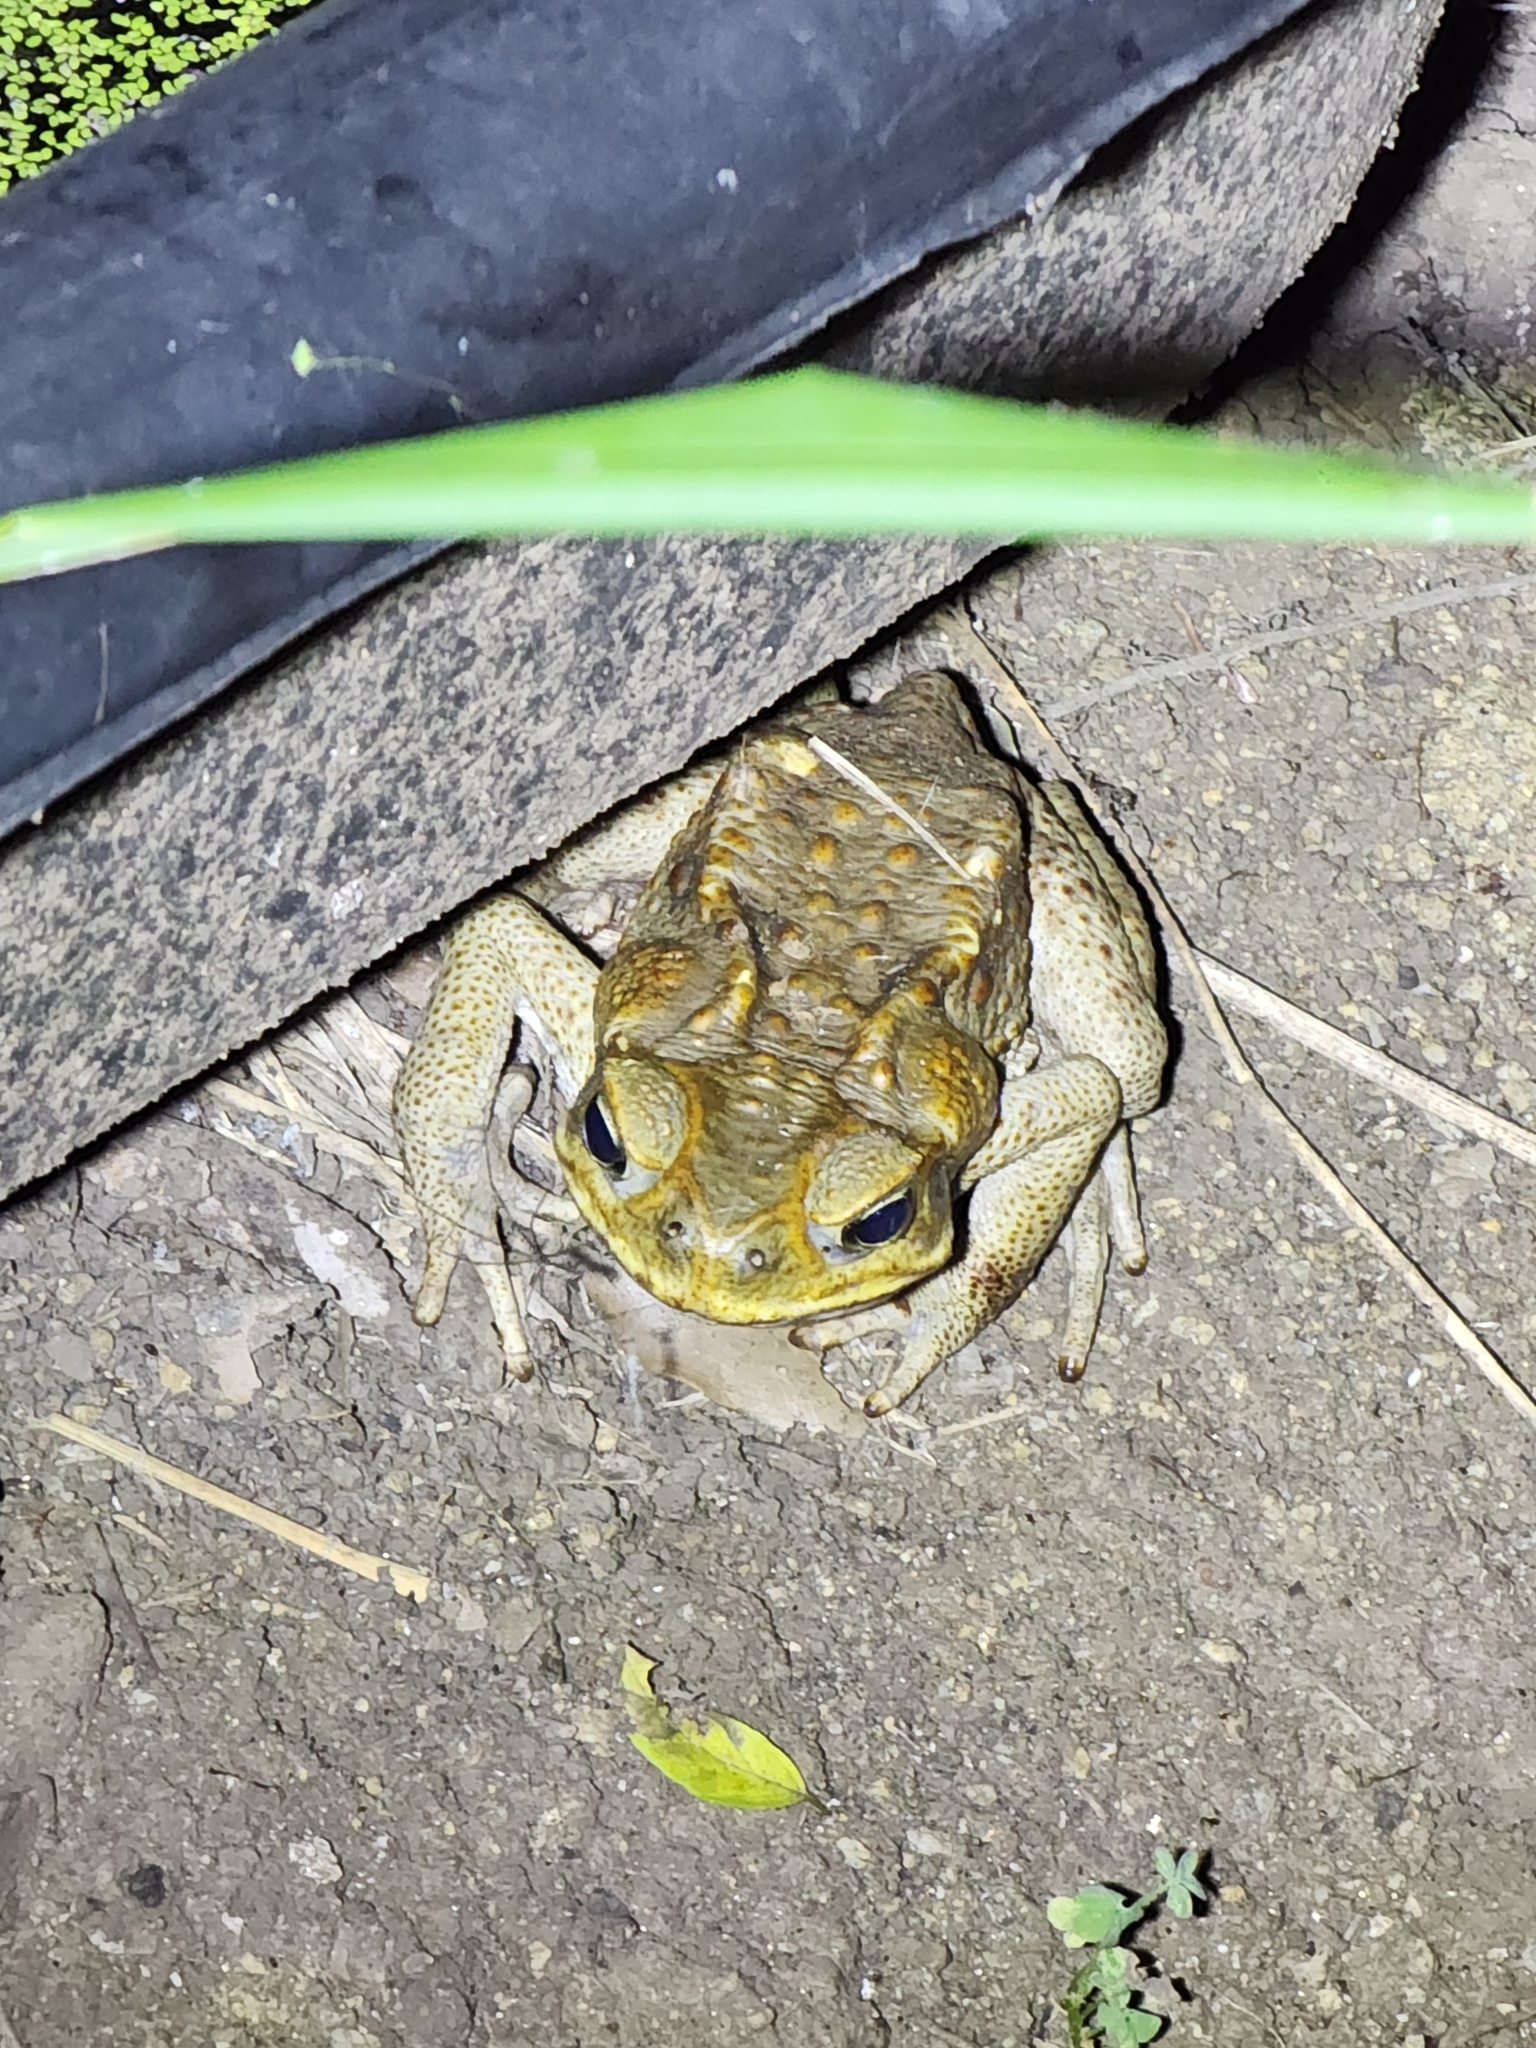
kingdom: Animalia
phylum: Chordata
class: Amphibia
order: Anura
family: Bufonidae
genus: Rhinella
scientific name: Rhinella marina
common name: Cane toad
